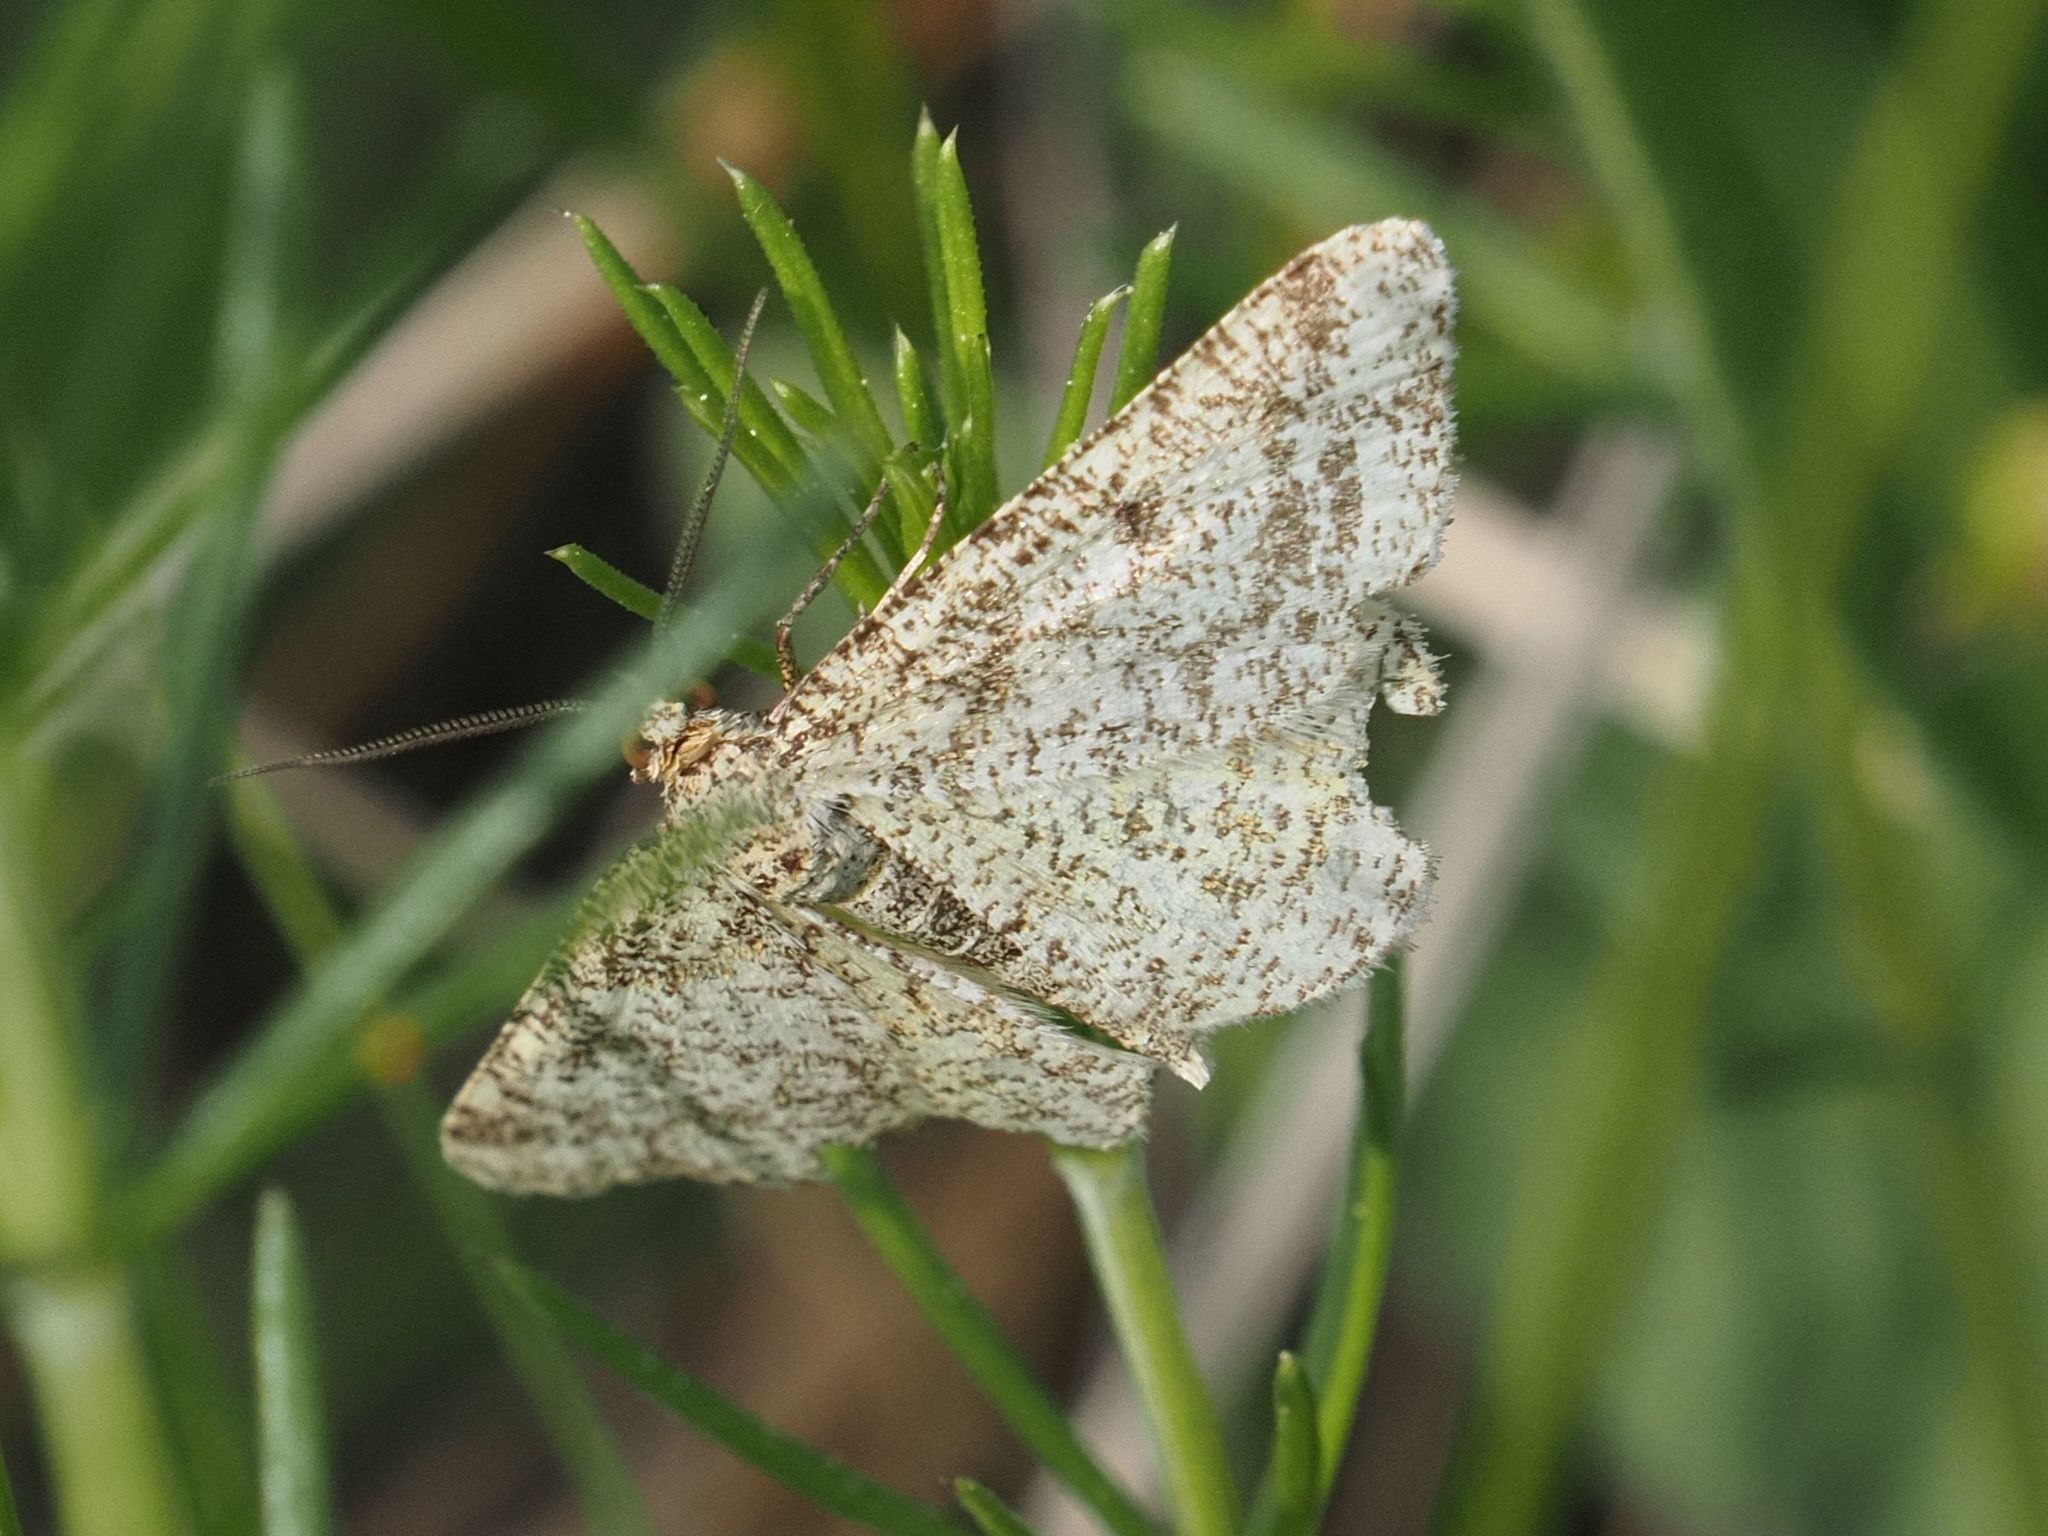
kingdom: Animalia
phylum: Arthropoda
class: Insecta
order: Lepidoptera
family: Geometridae
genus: Heliomata
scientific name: Heliomata glarearia
